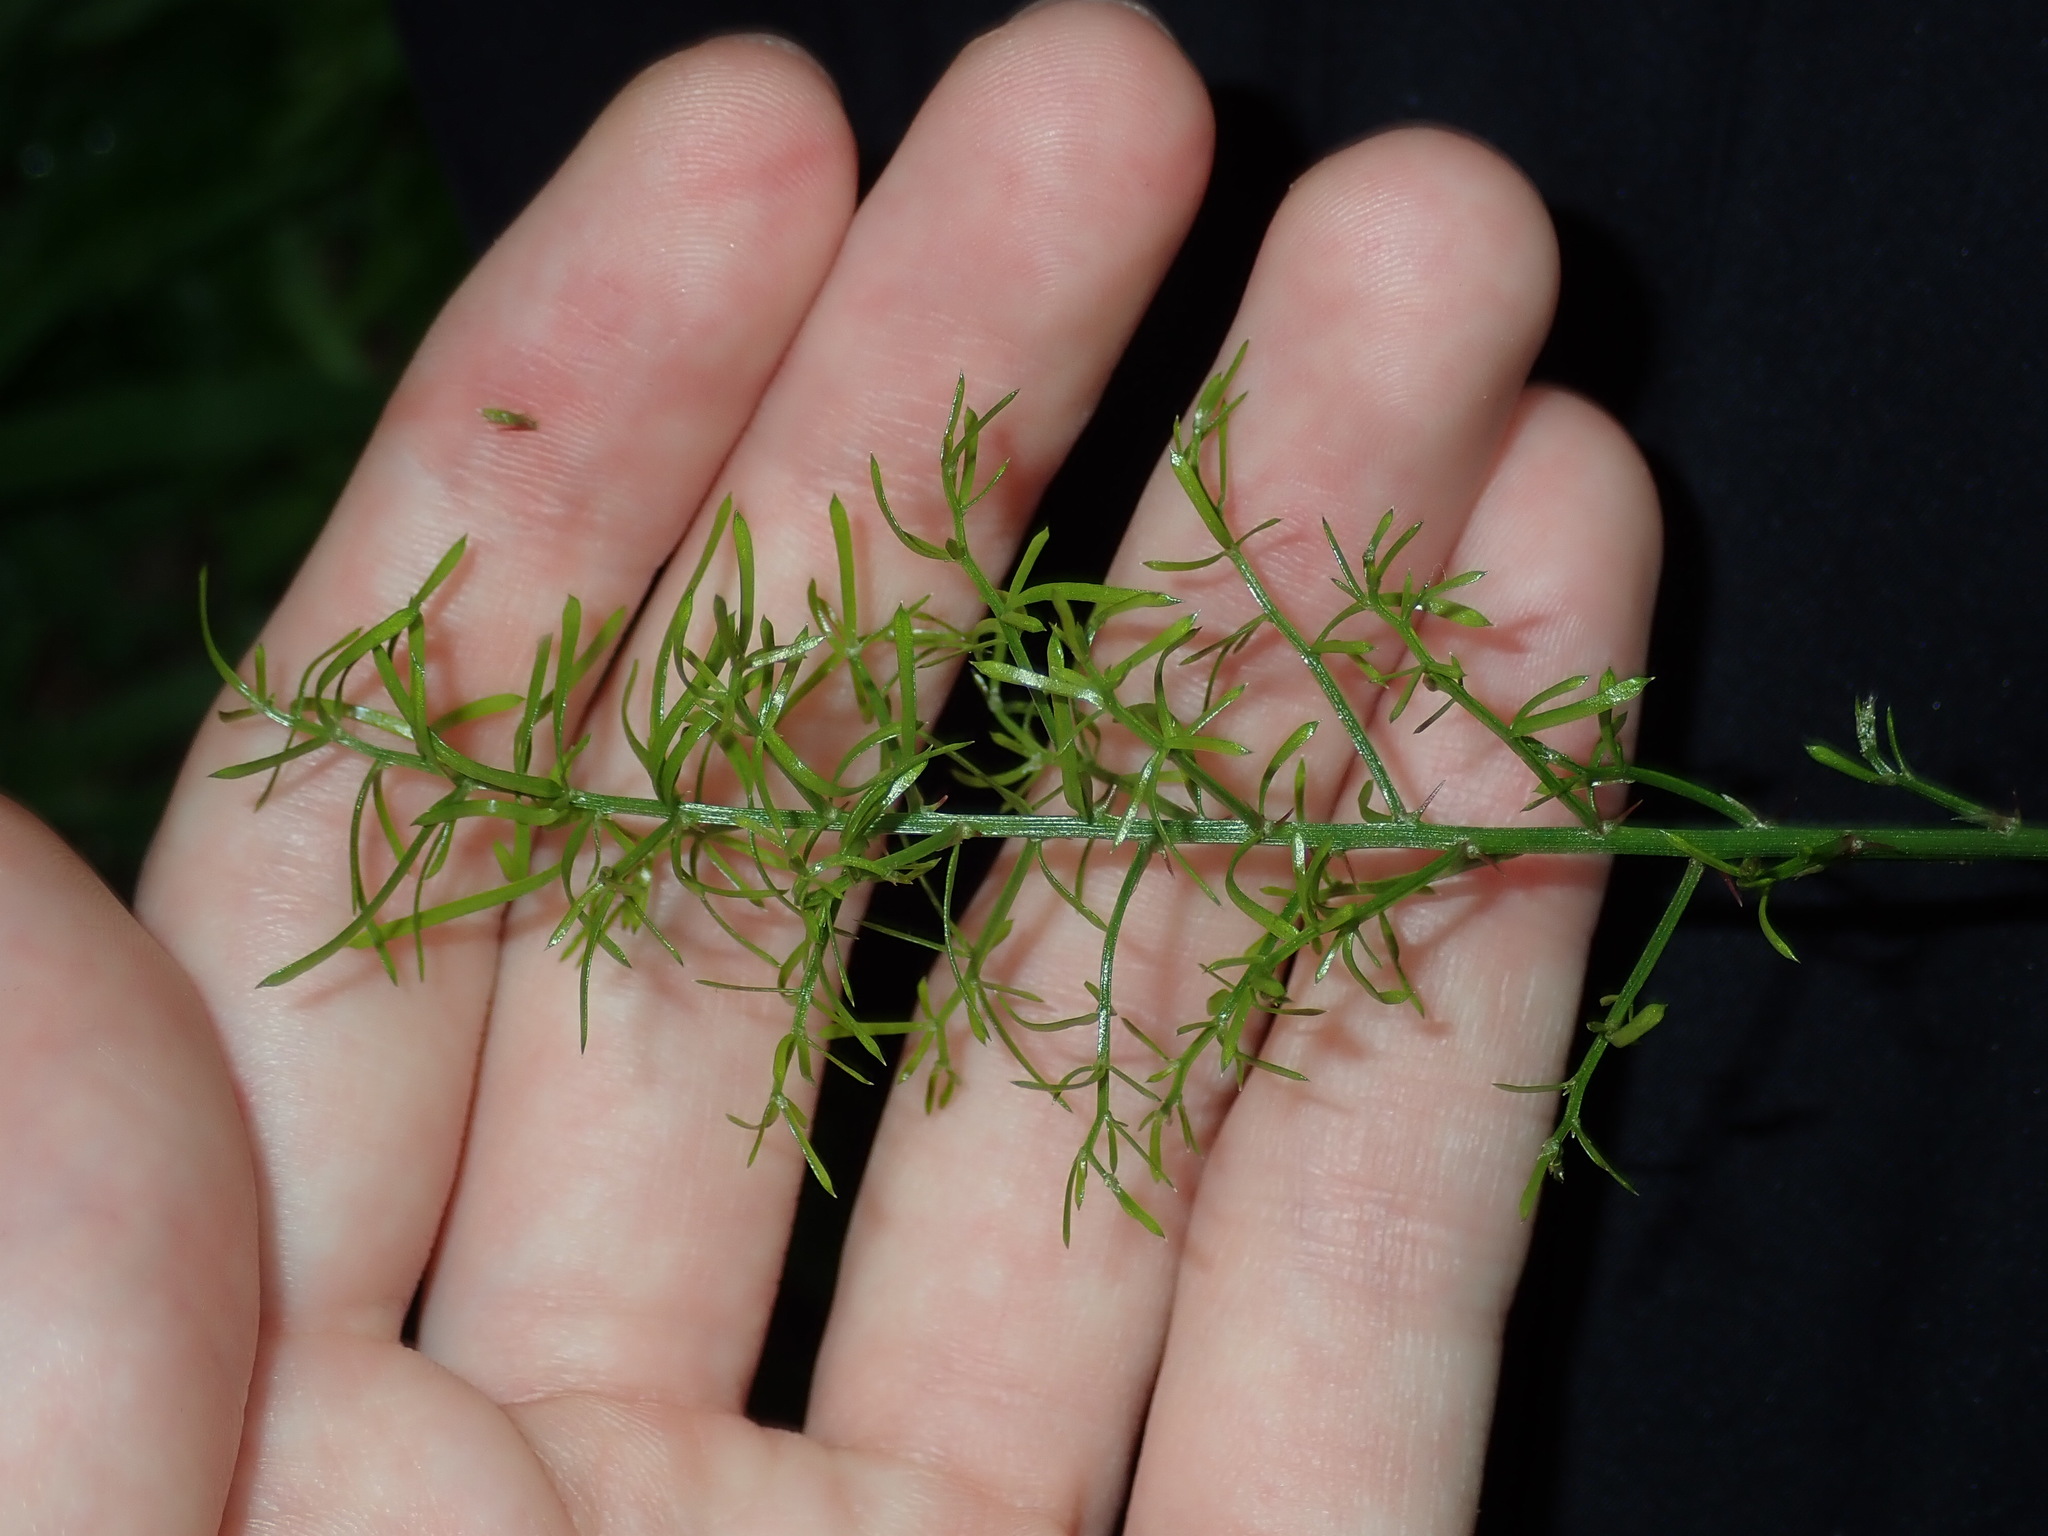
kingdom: Plantae
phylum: Tracheophyta
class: Liliopsida
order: Asparagales
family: Asparagaceae
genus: Asparagus
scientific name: Asparagus aethiopicus
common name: Sprenger's asparagus fern
